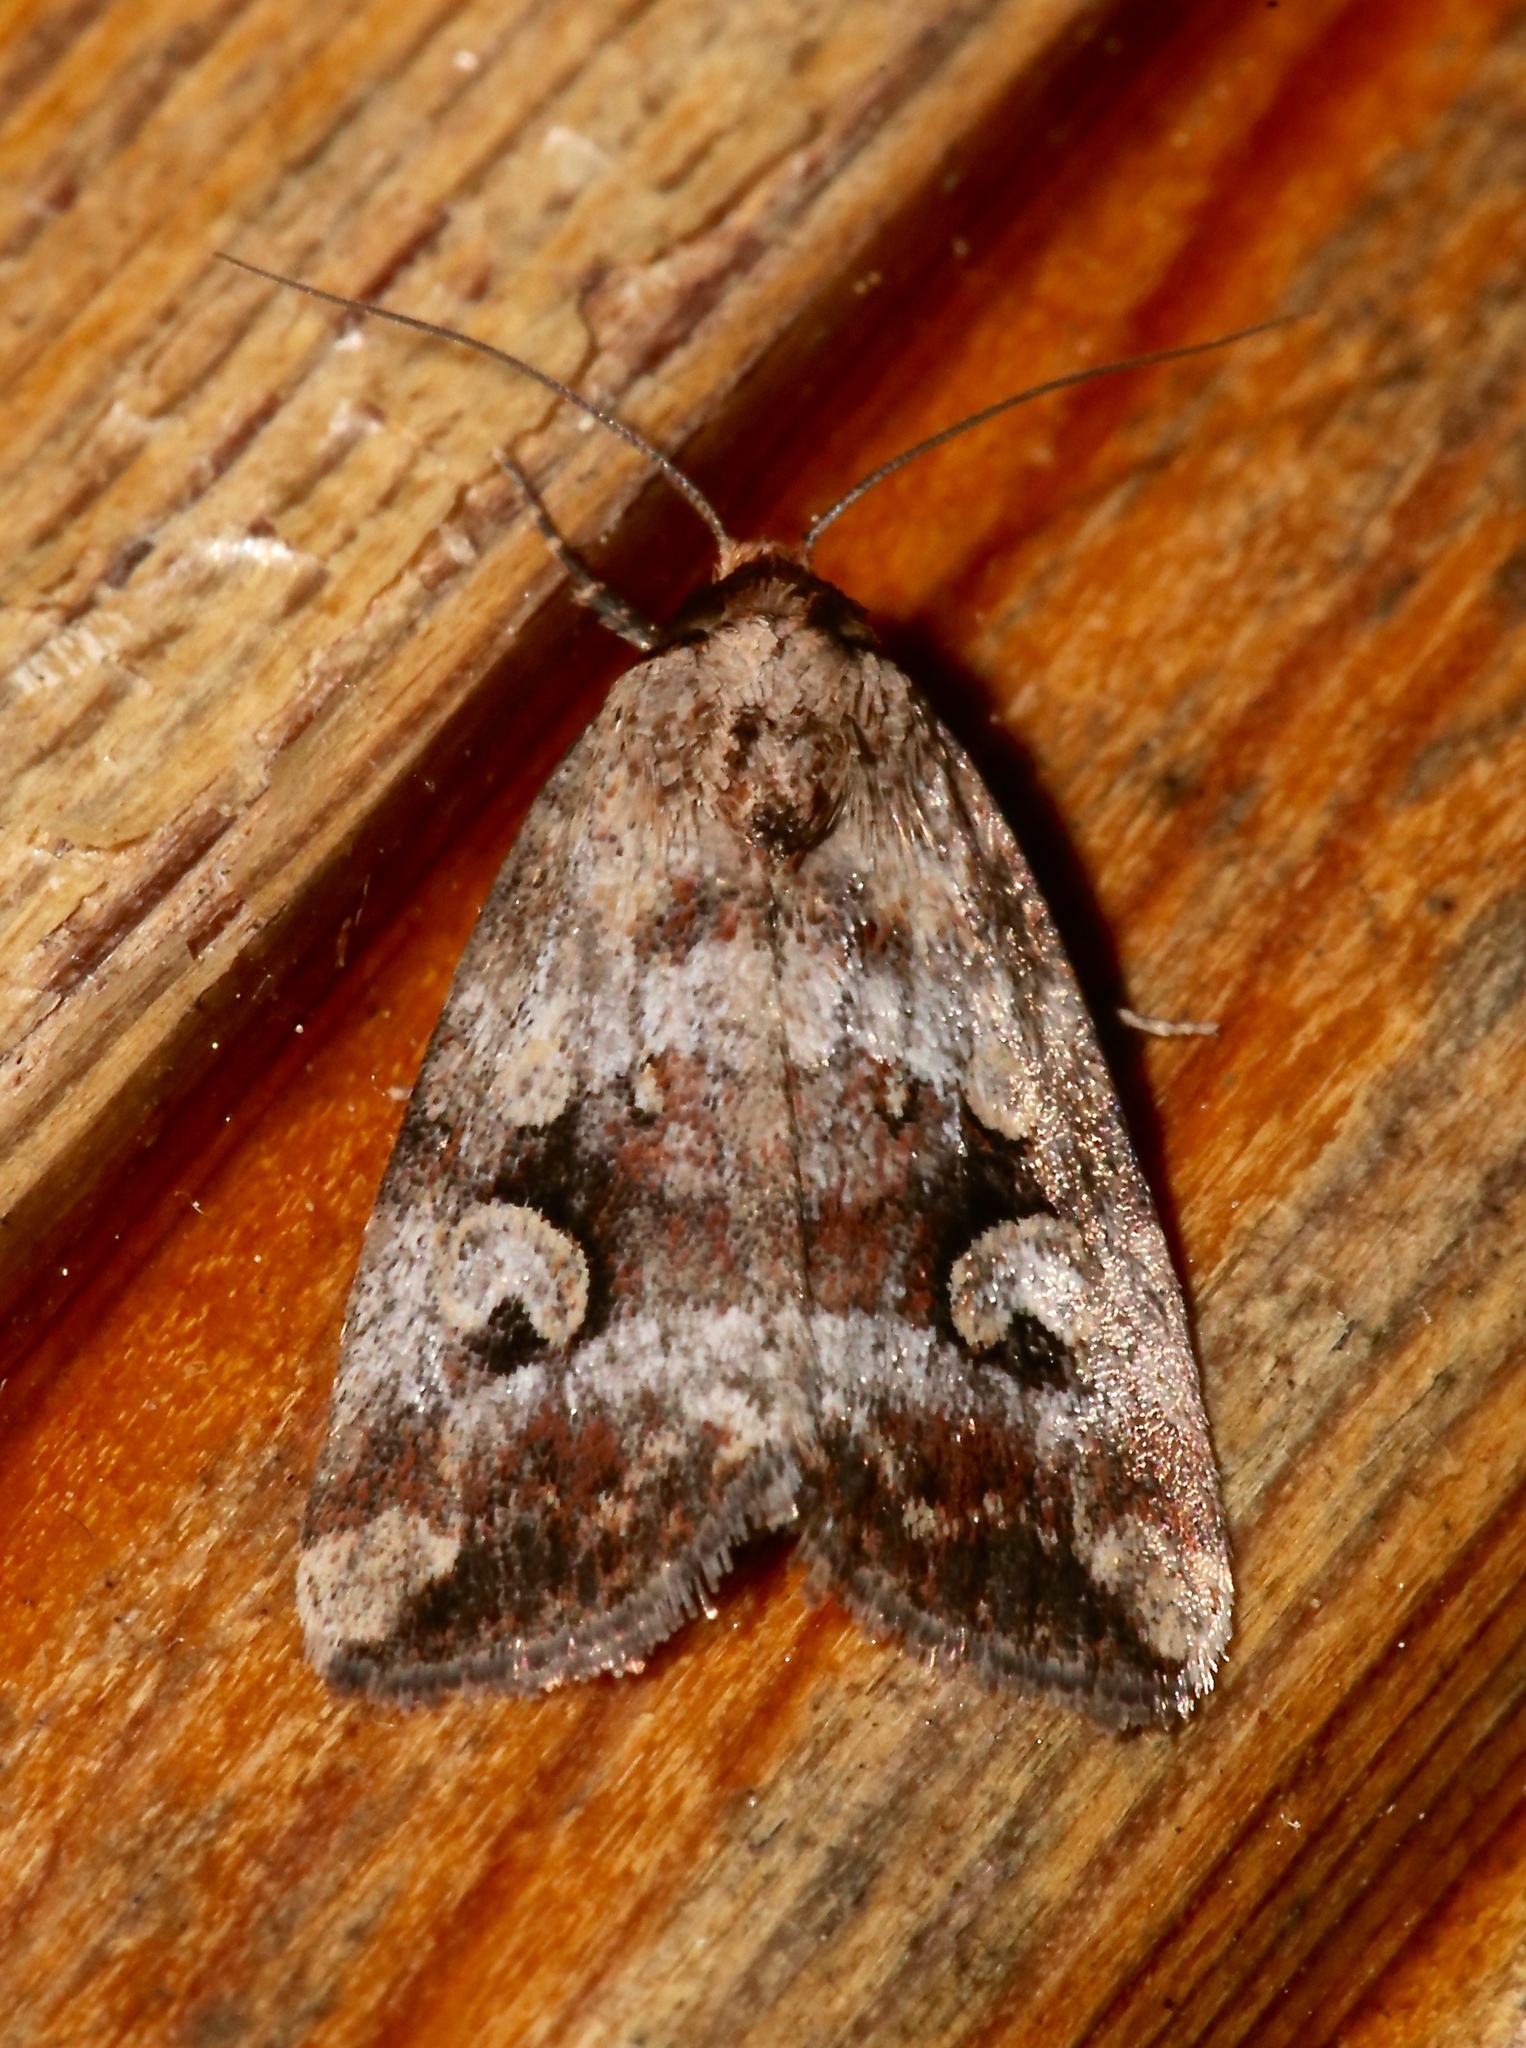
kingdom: Animalia
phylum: Arthropoda
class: Insecta
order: Lepidoptera
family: Noctuidae
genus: Elaphria
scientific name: Elaphria alapallida
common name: Pale-winged midget
